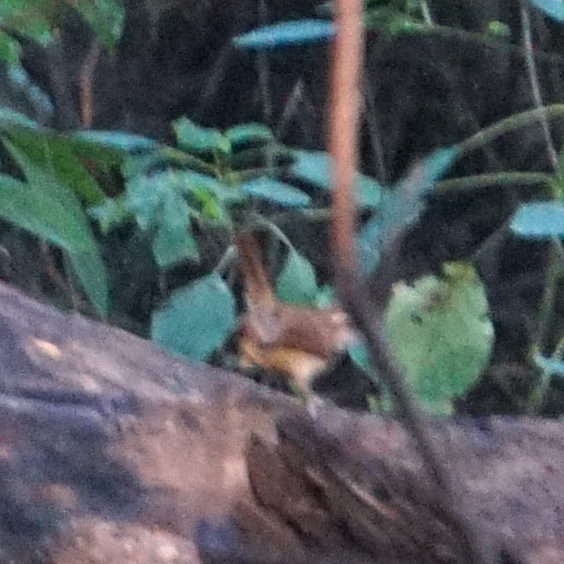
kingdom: Animalia
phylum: Chordata
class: Aves
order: Passeriformes
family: Troglodytidae
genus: Thryothorus
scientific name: Thryothorus ludovicianus
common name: Carolina wren
